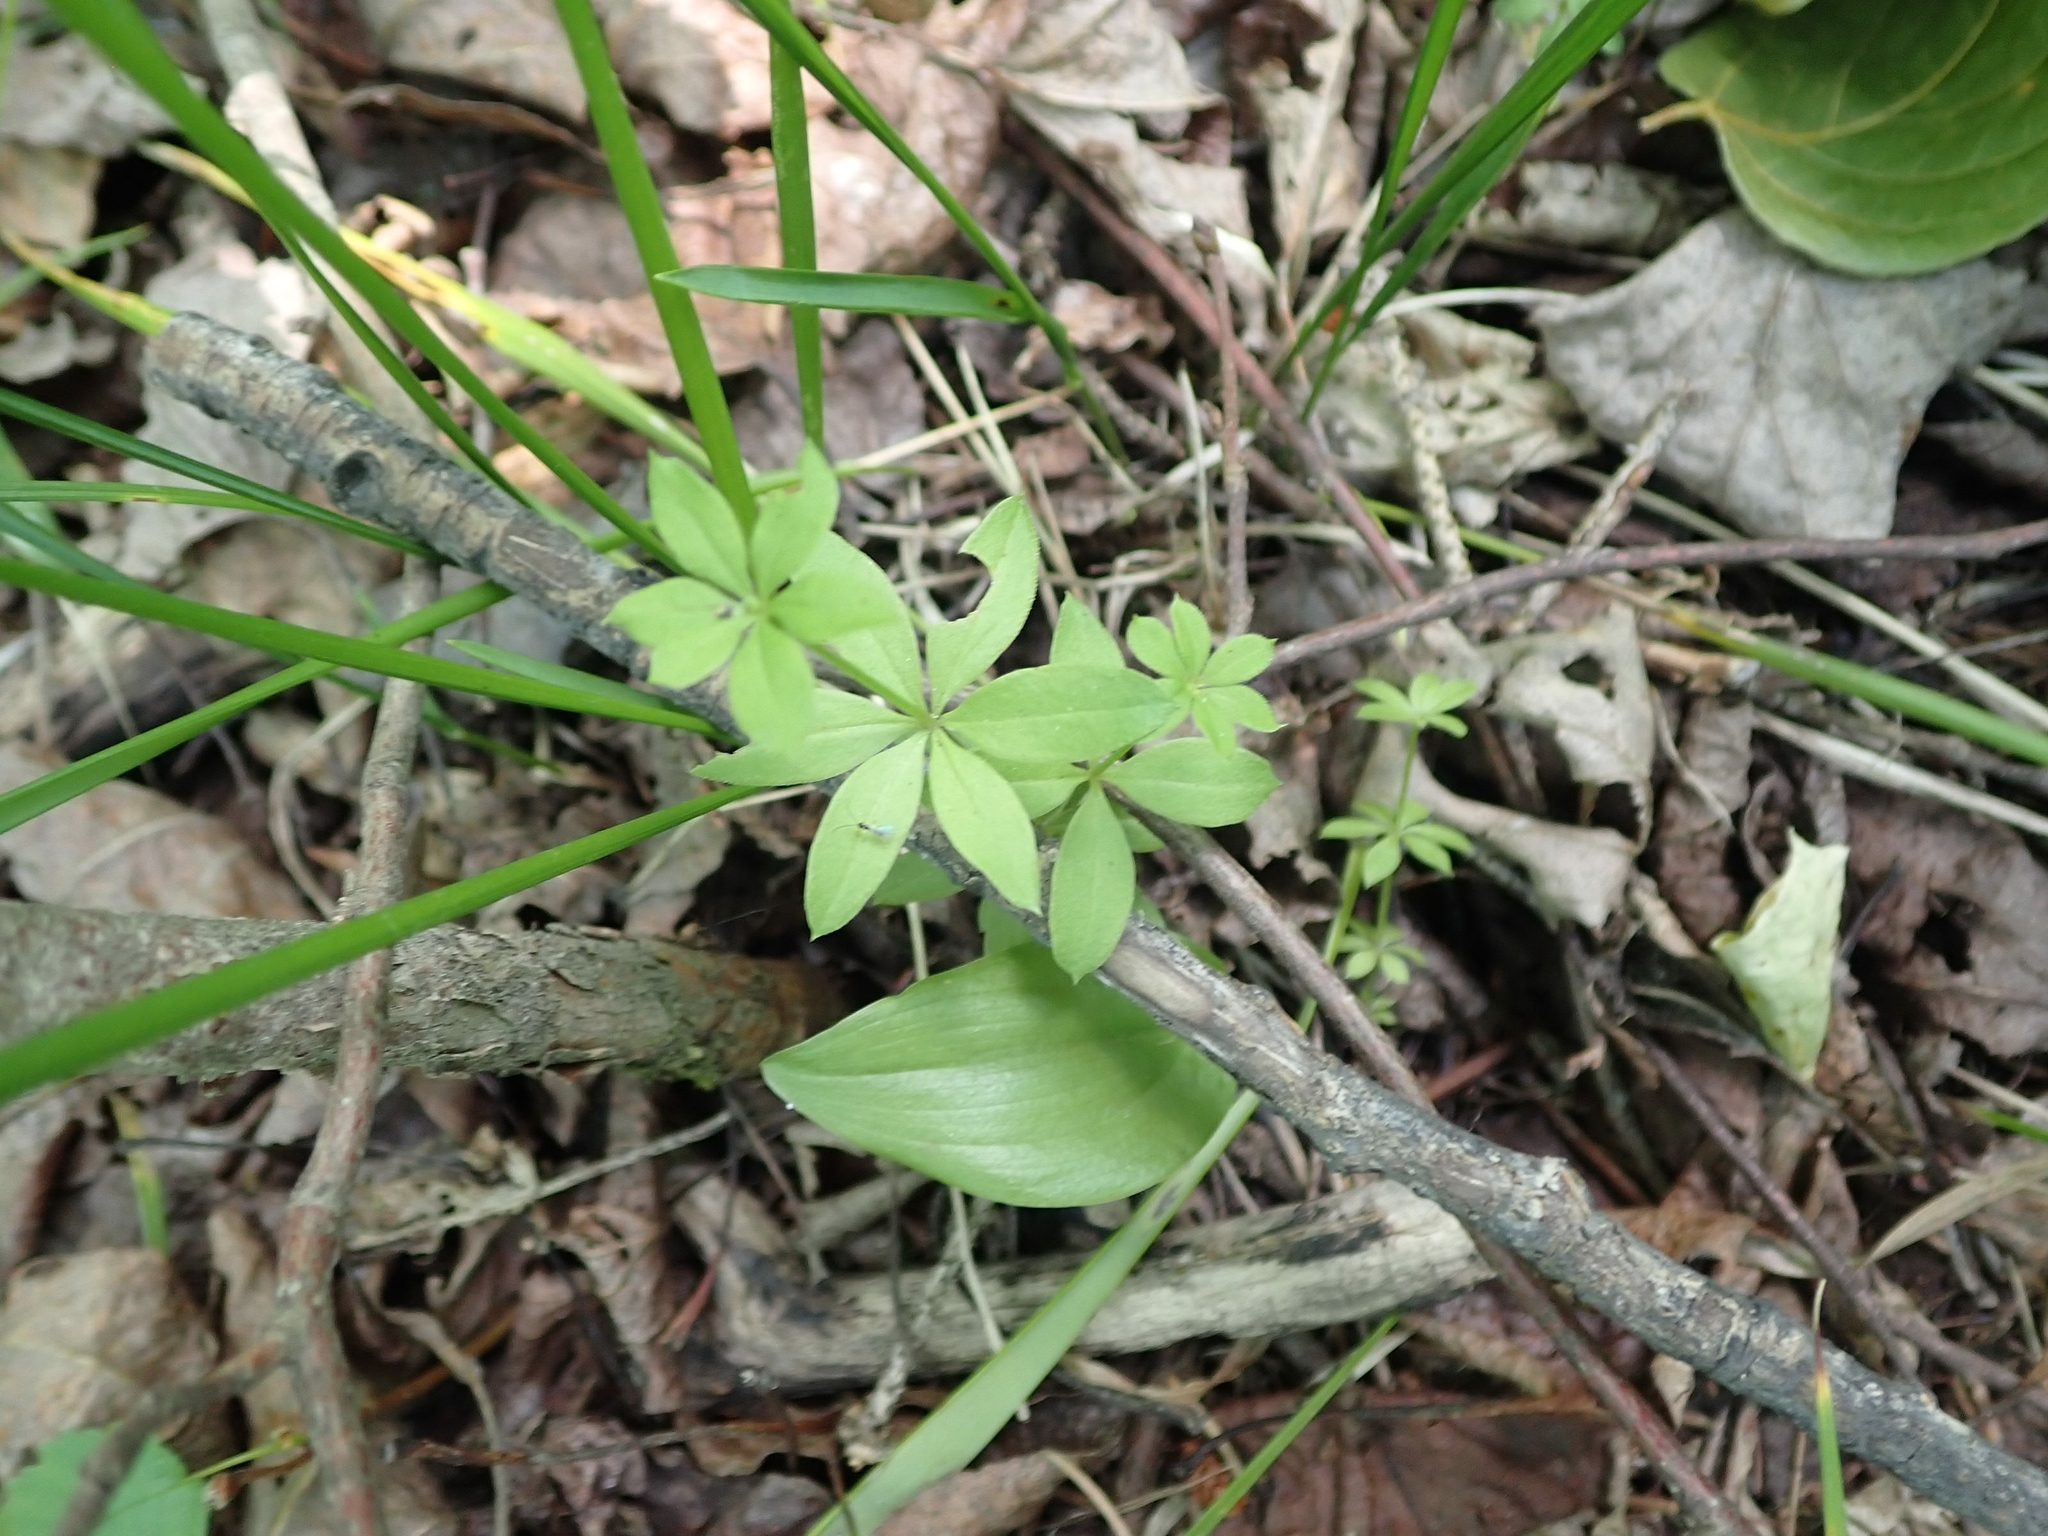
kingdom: Plantae
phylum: Tracheophyta
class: Magnoliopsida
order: Gentianales
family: Rubiaceae
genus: Galium
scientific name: Galium triflorum
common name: Fragrant bedstraw
